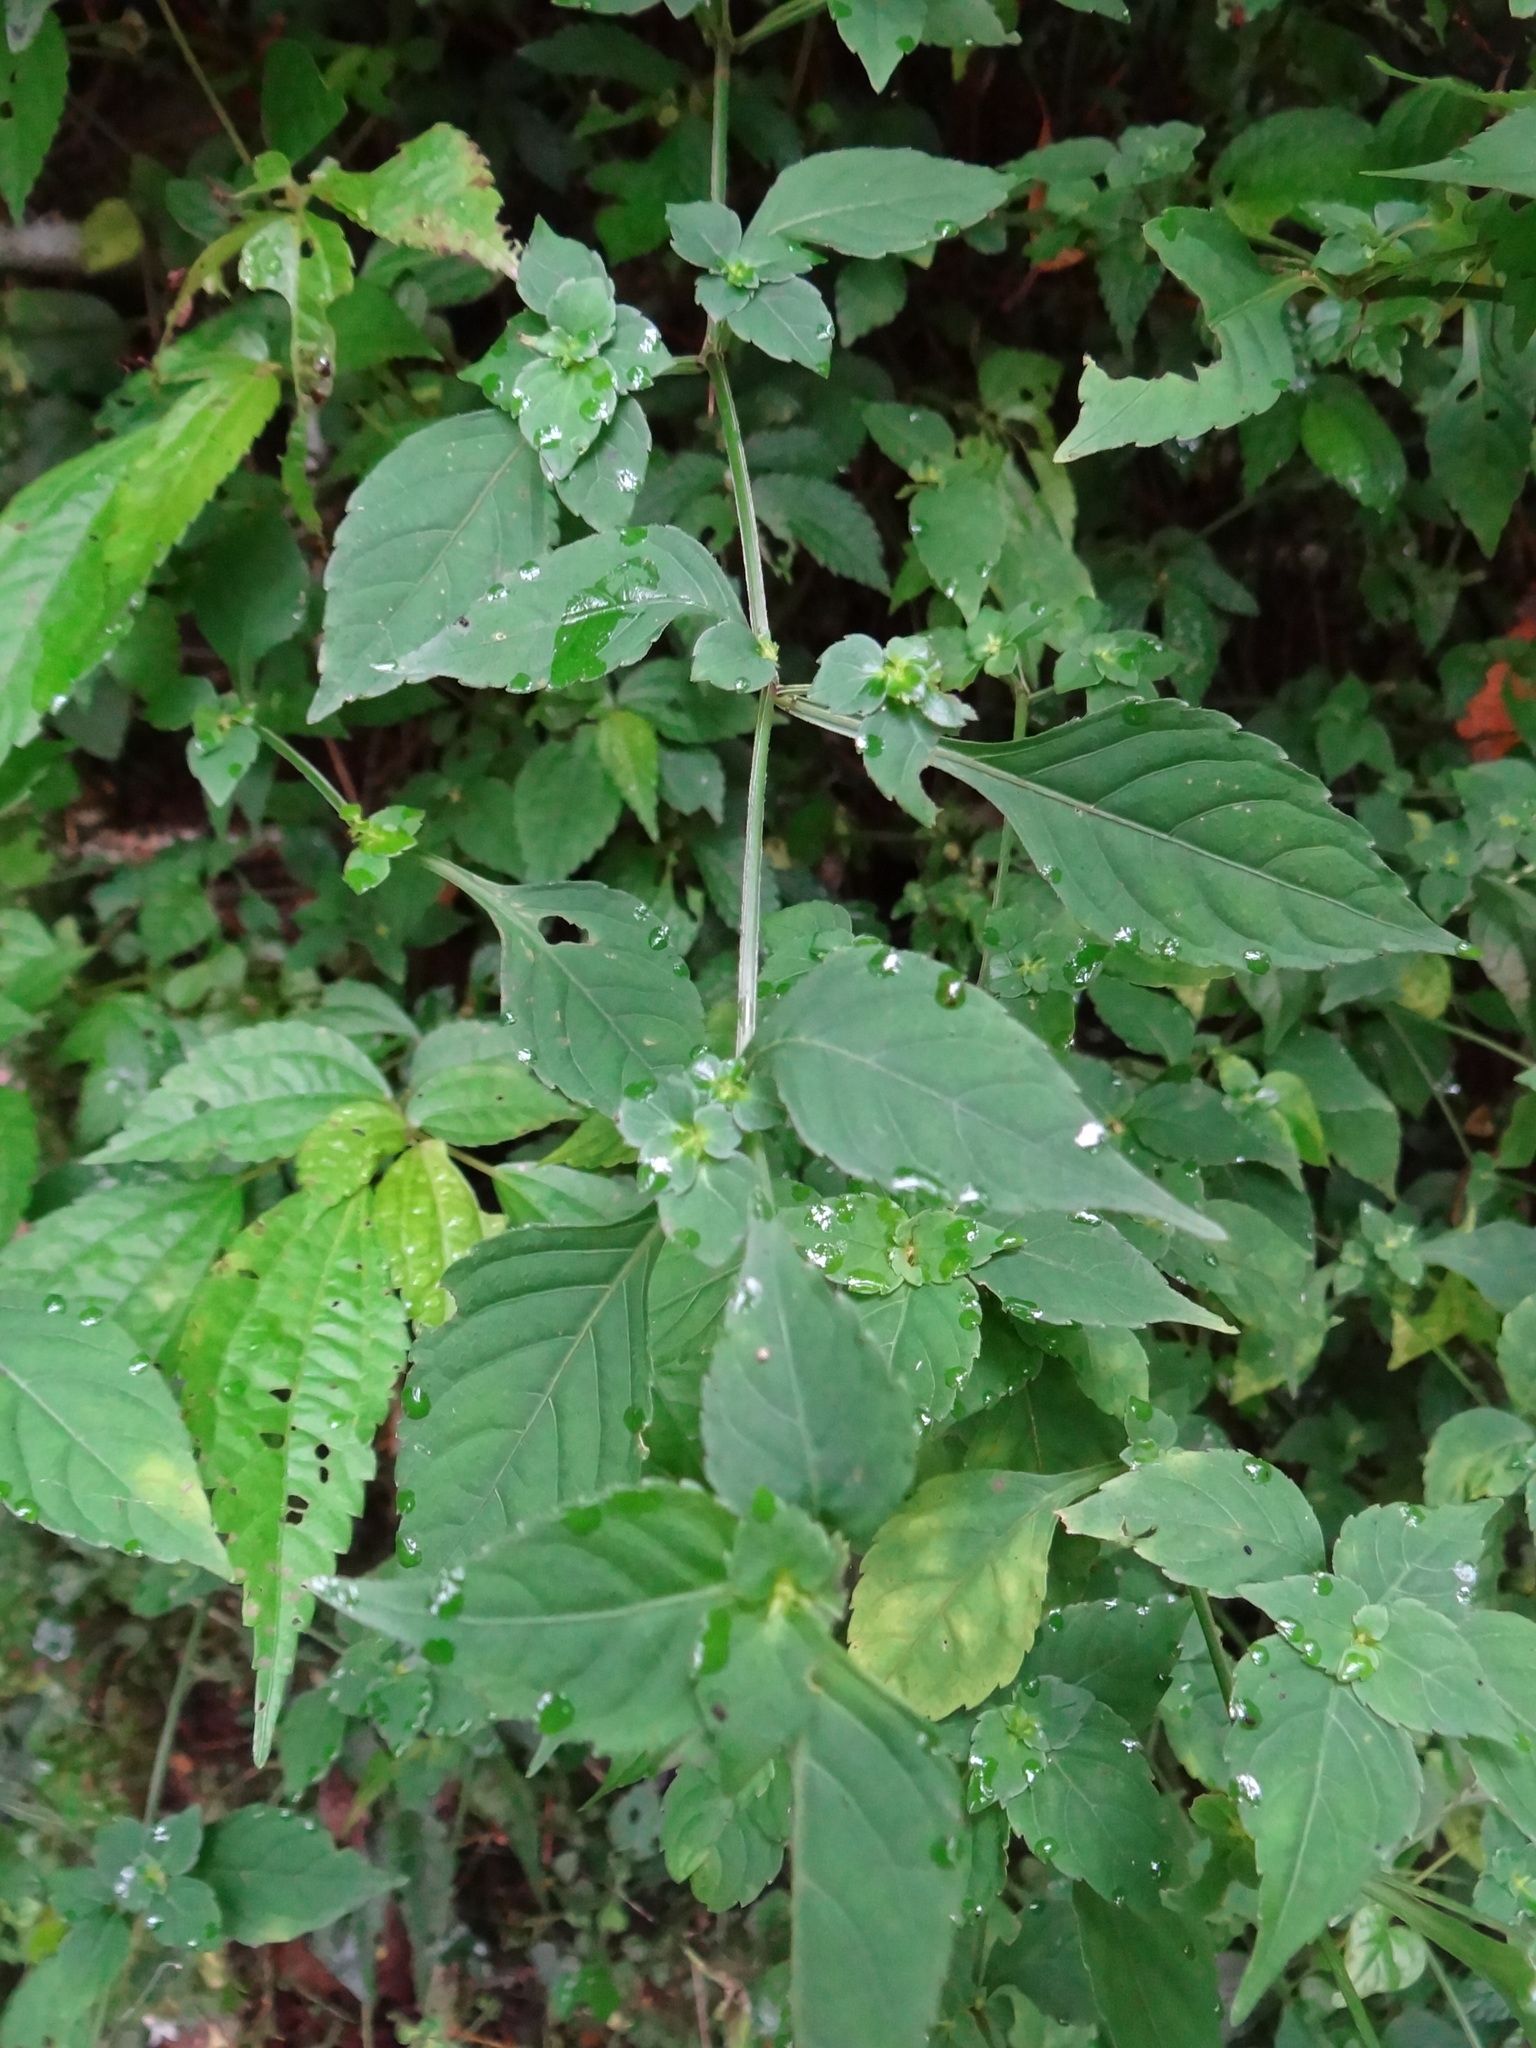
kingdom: Plantae
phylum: Tracheophyta
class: Magnoliopsida
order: Lamiales
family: Acanthaceae
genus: Strobilanthes
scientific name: Strobilanthes wallichii
